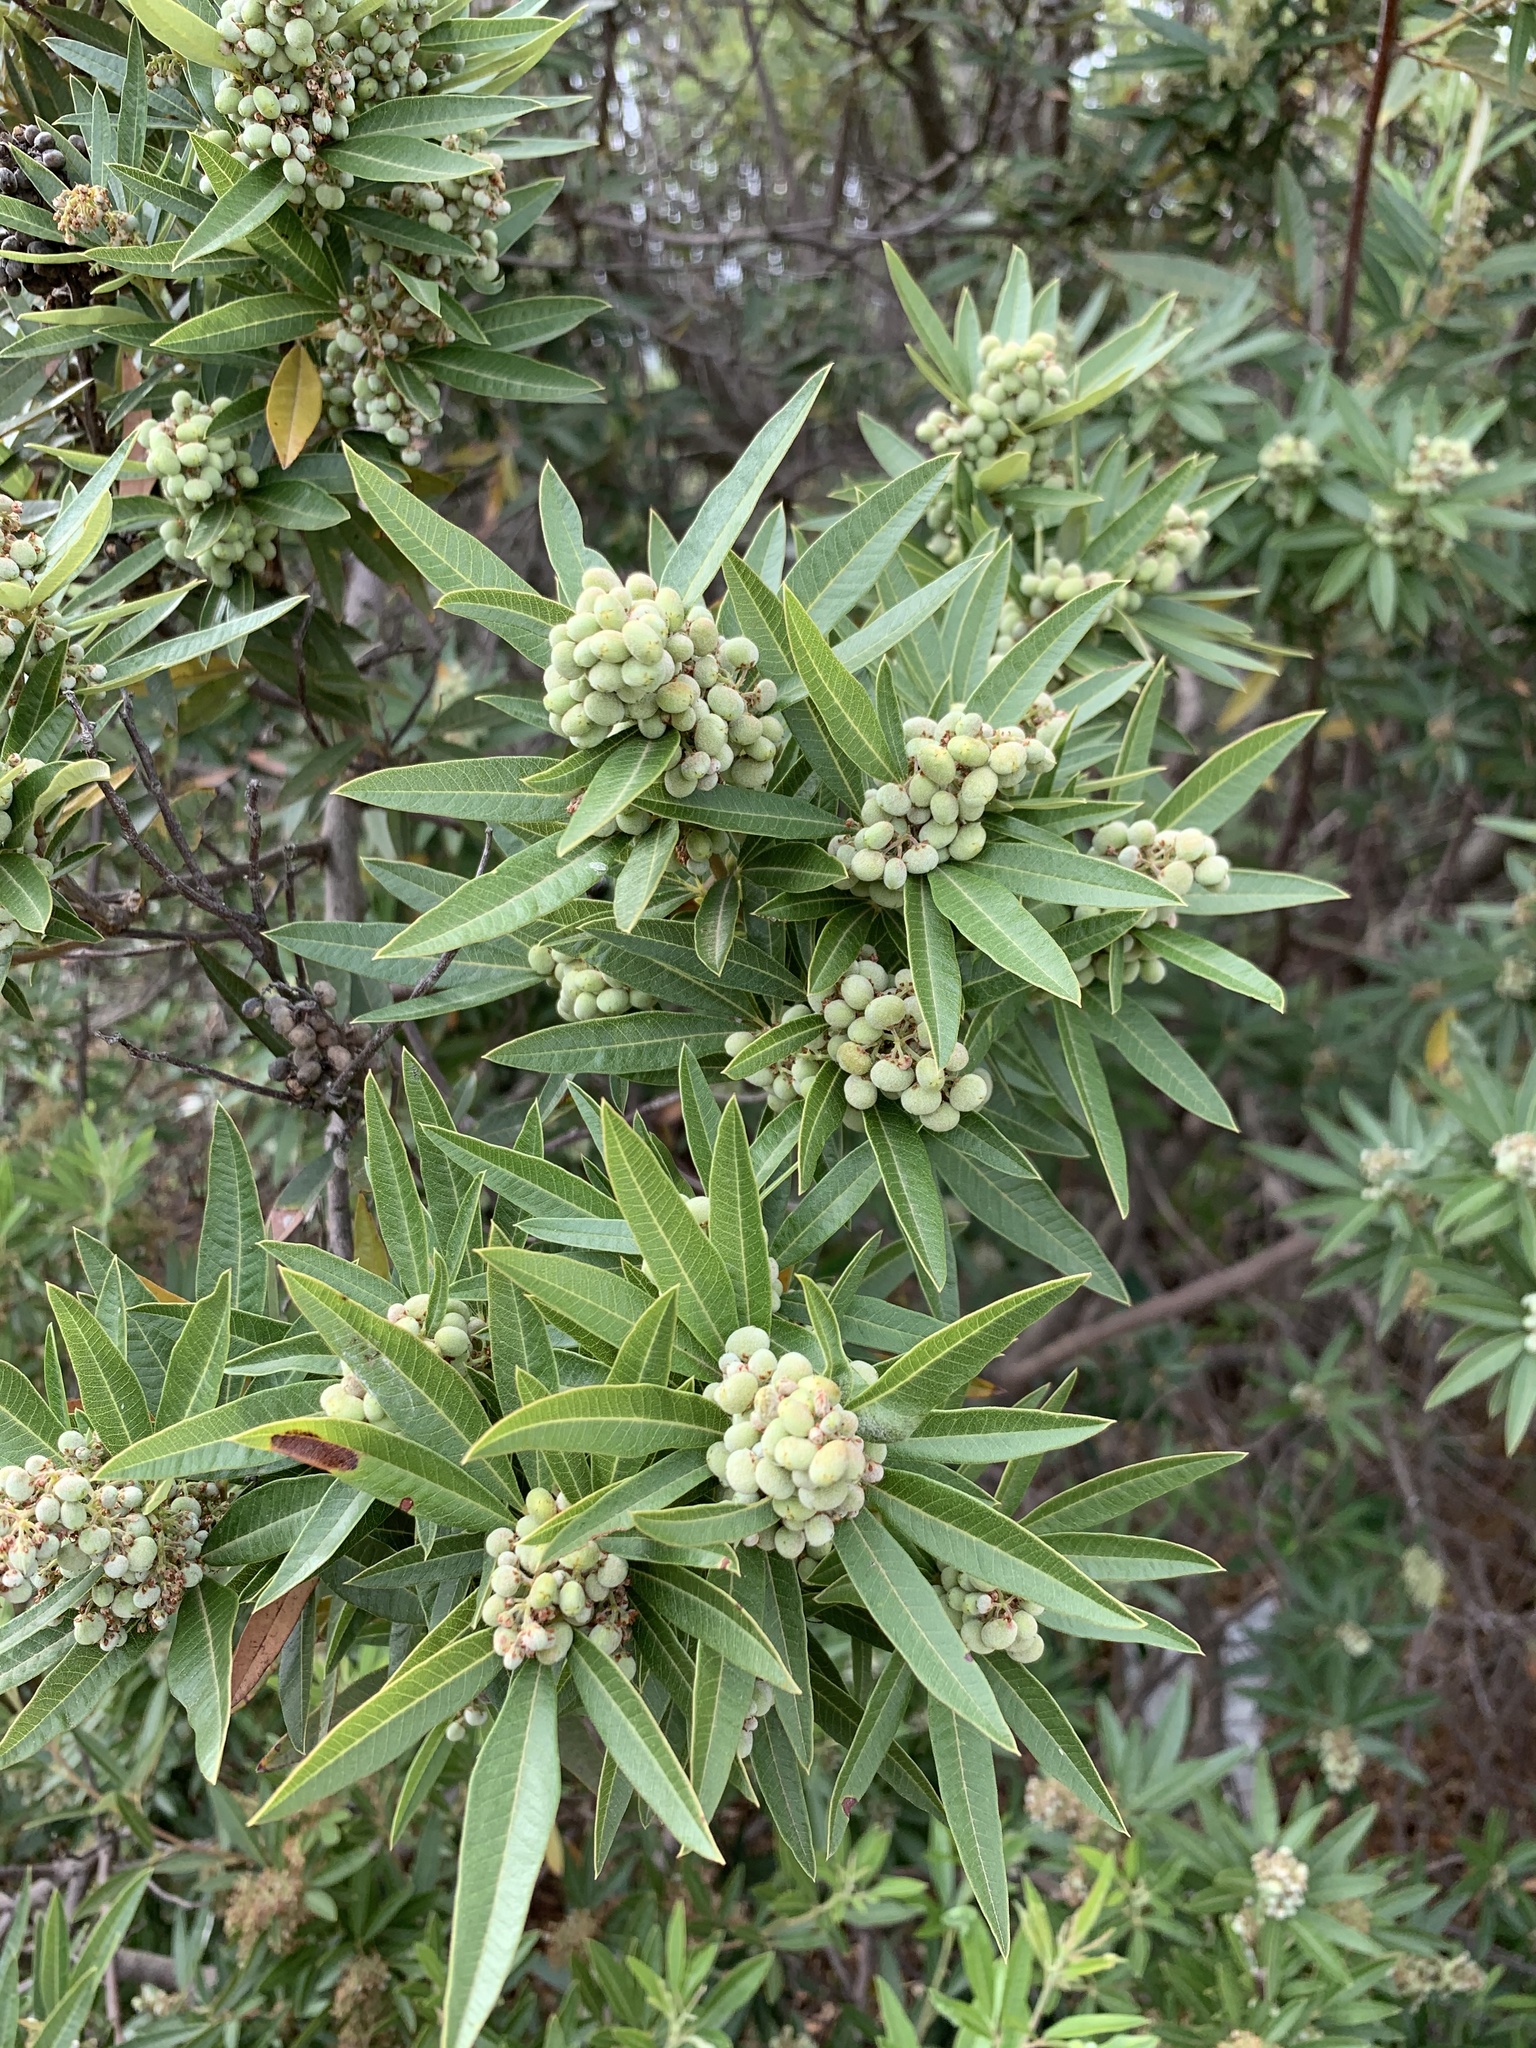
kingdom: Plantae
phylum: Tracheophyta
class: Magnoliopsida
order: Sapindales
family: Anacardiaceae
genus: Searsia
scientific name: Searsia angustifolia
